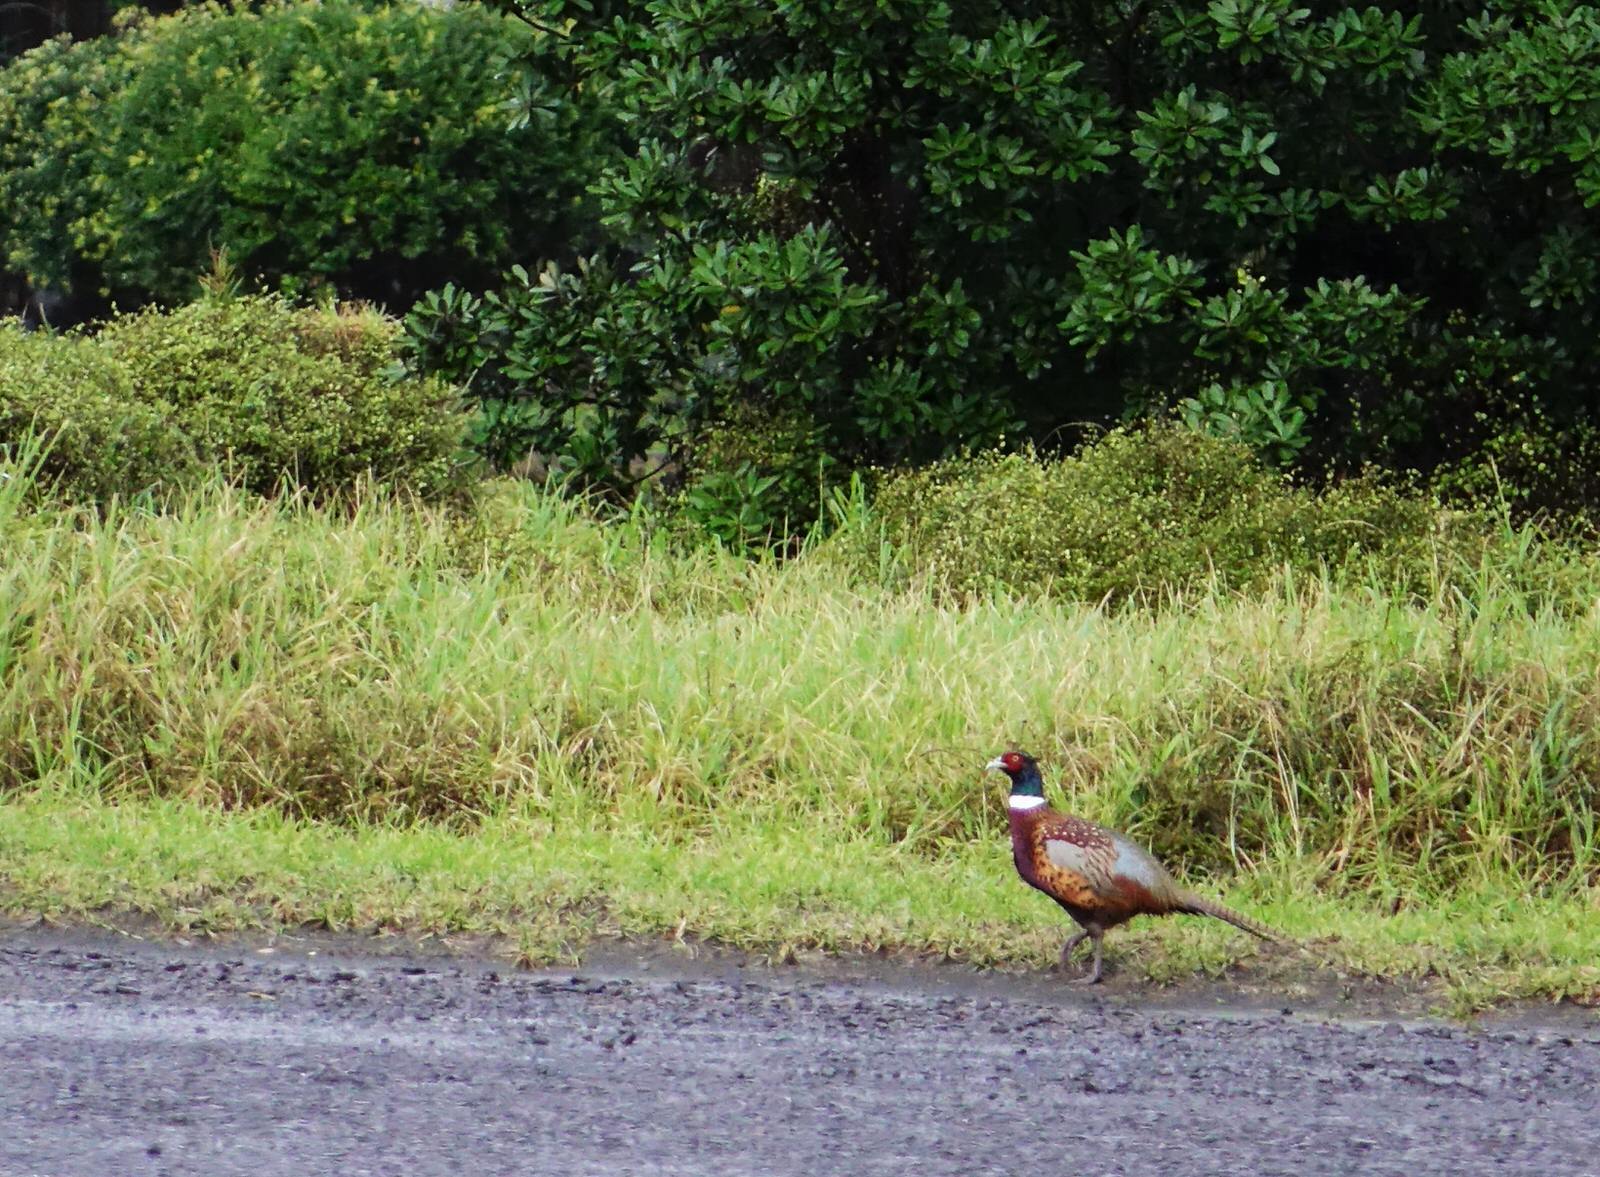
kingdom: Animalia
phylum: Chordata
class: Aves
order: Galliformes
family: Phasianidae
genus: Phasianus
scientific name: Phasianus colchicus
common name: Common pheasant
